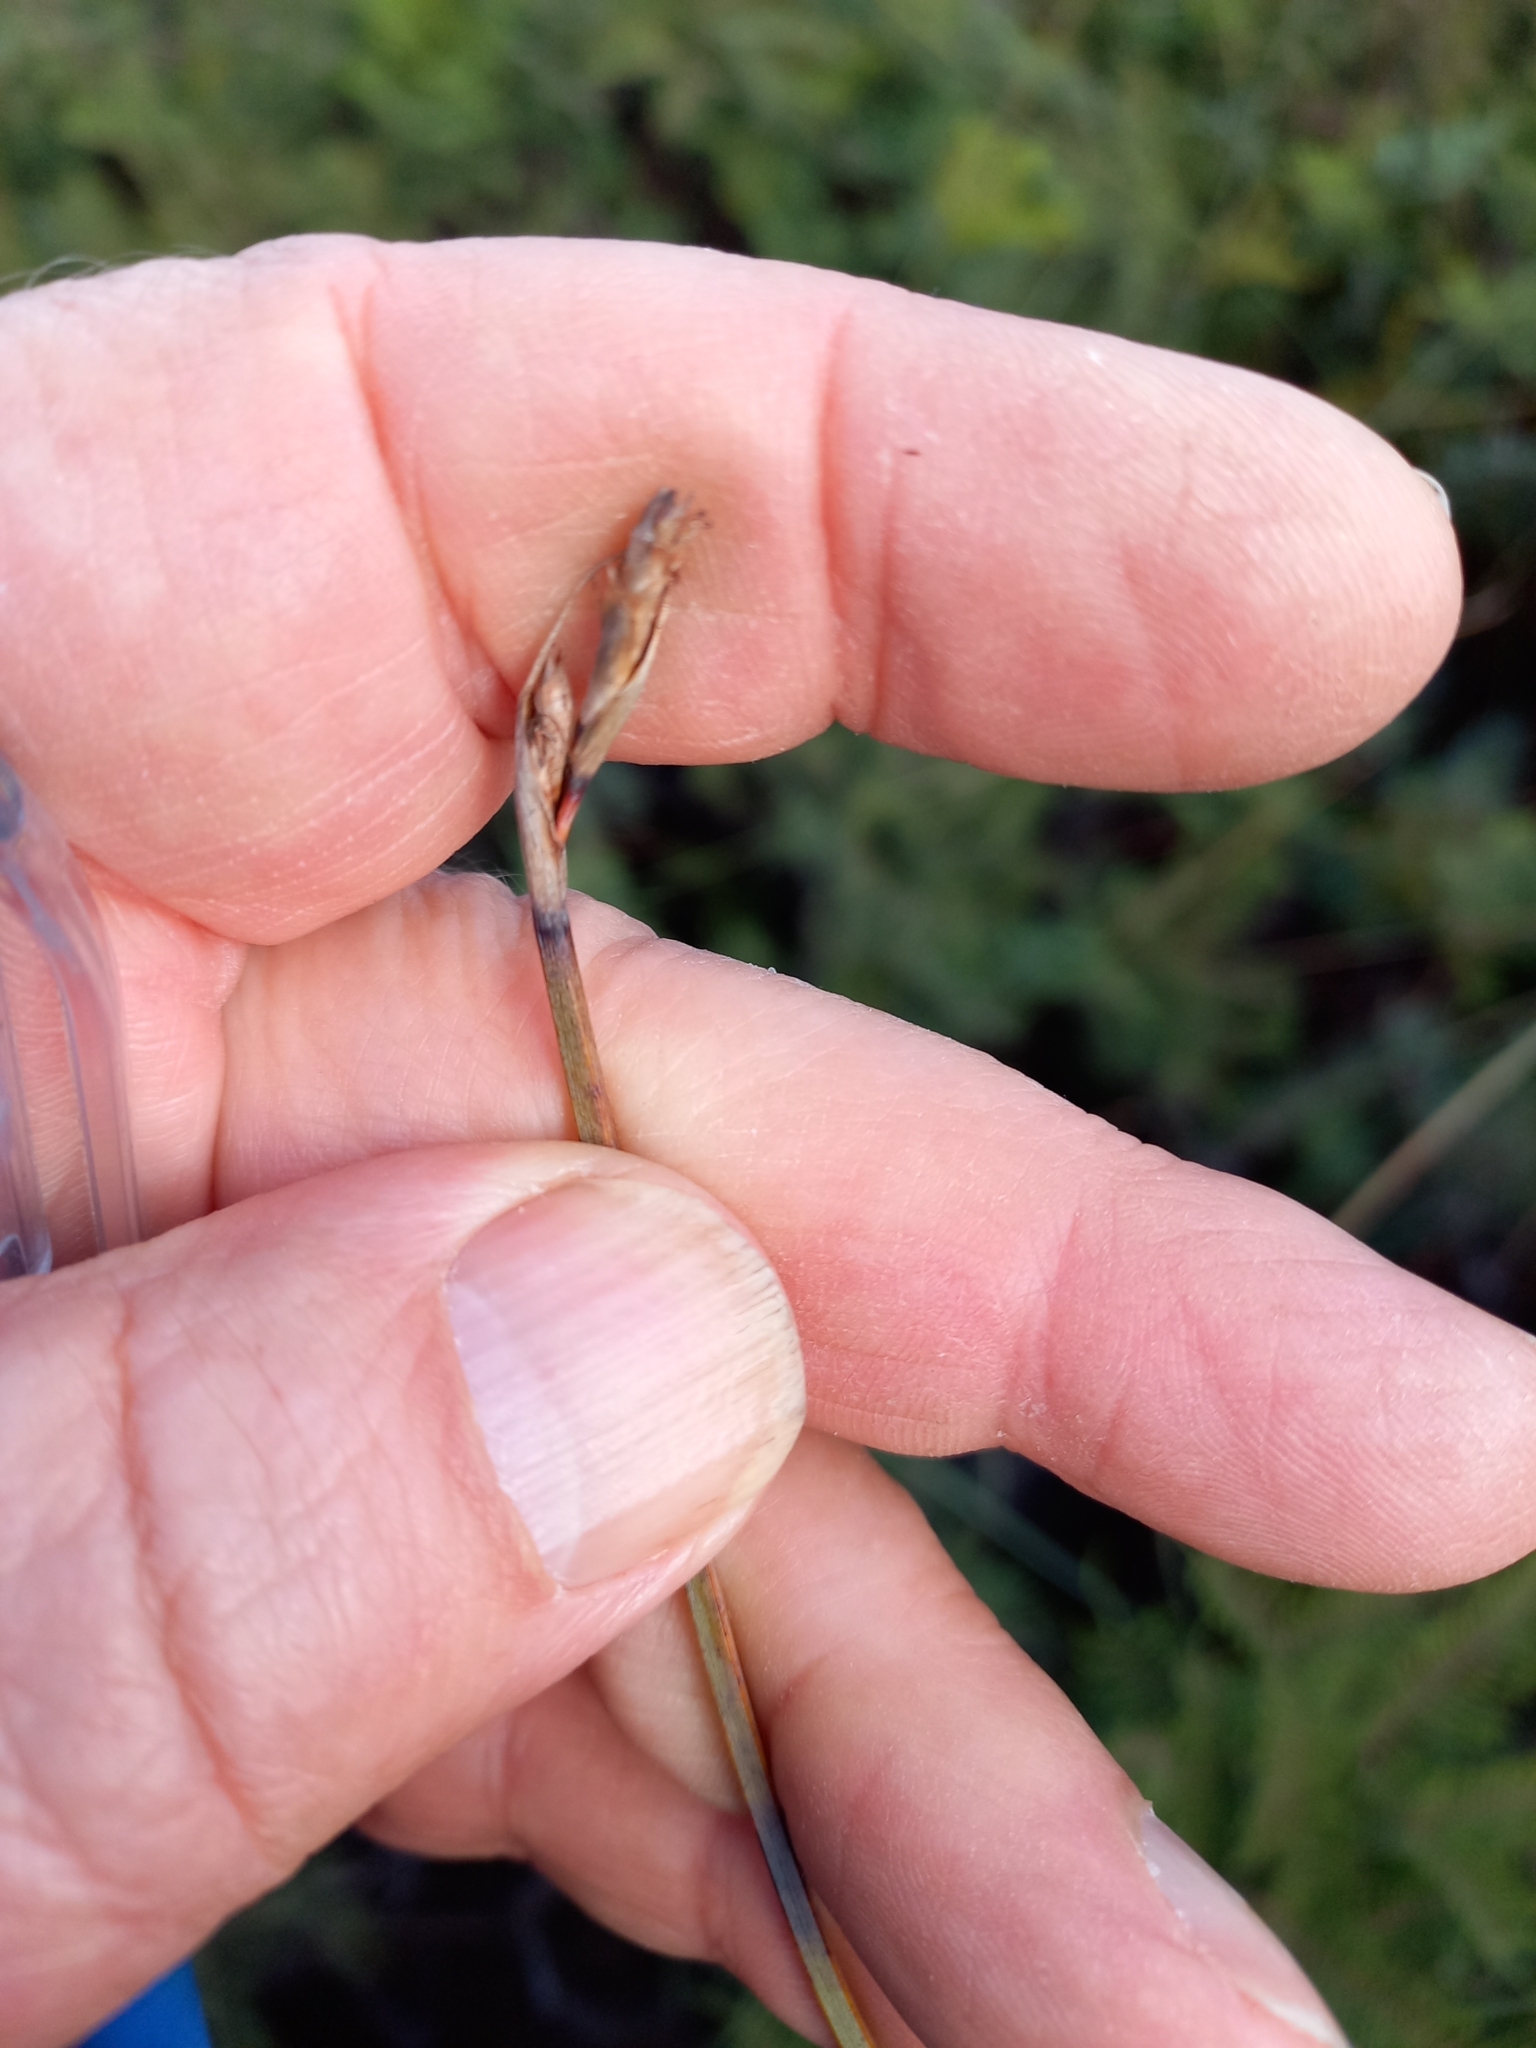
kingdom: Plantae
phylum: Tracheophyta
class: Liliopsida
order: Poales
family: Cyperaceae
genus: Lepidosperma
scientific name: Lepidosperma australe
